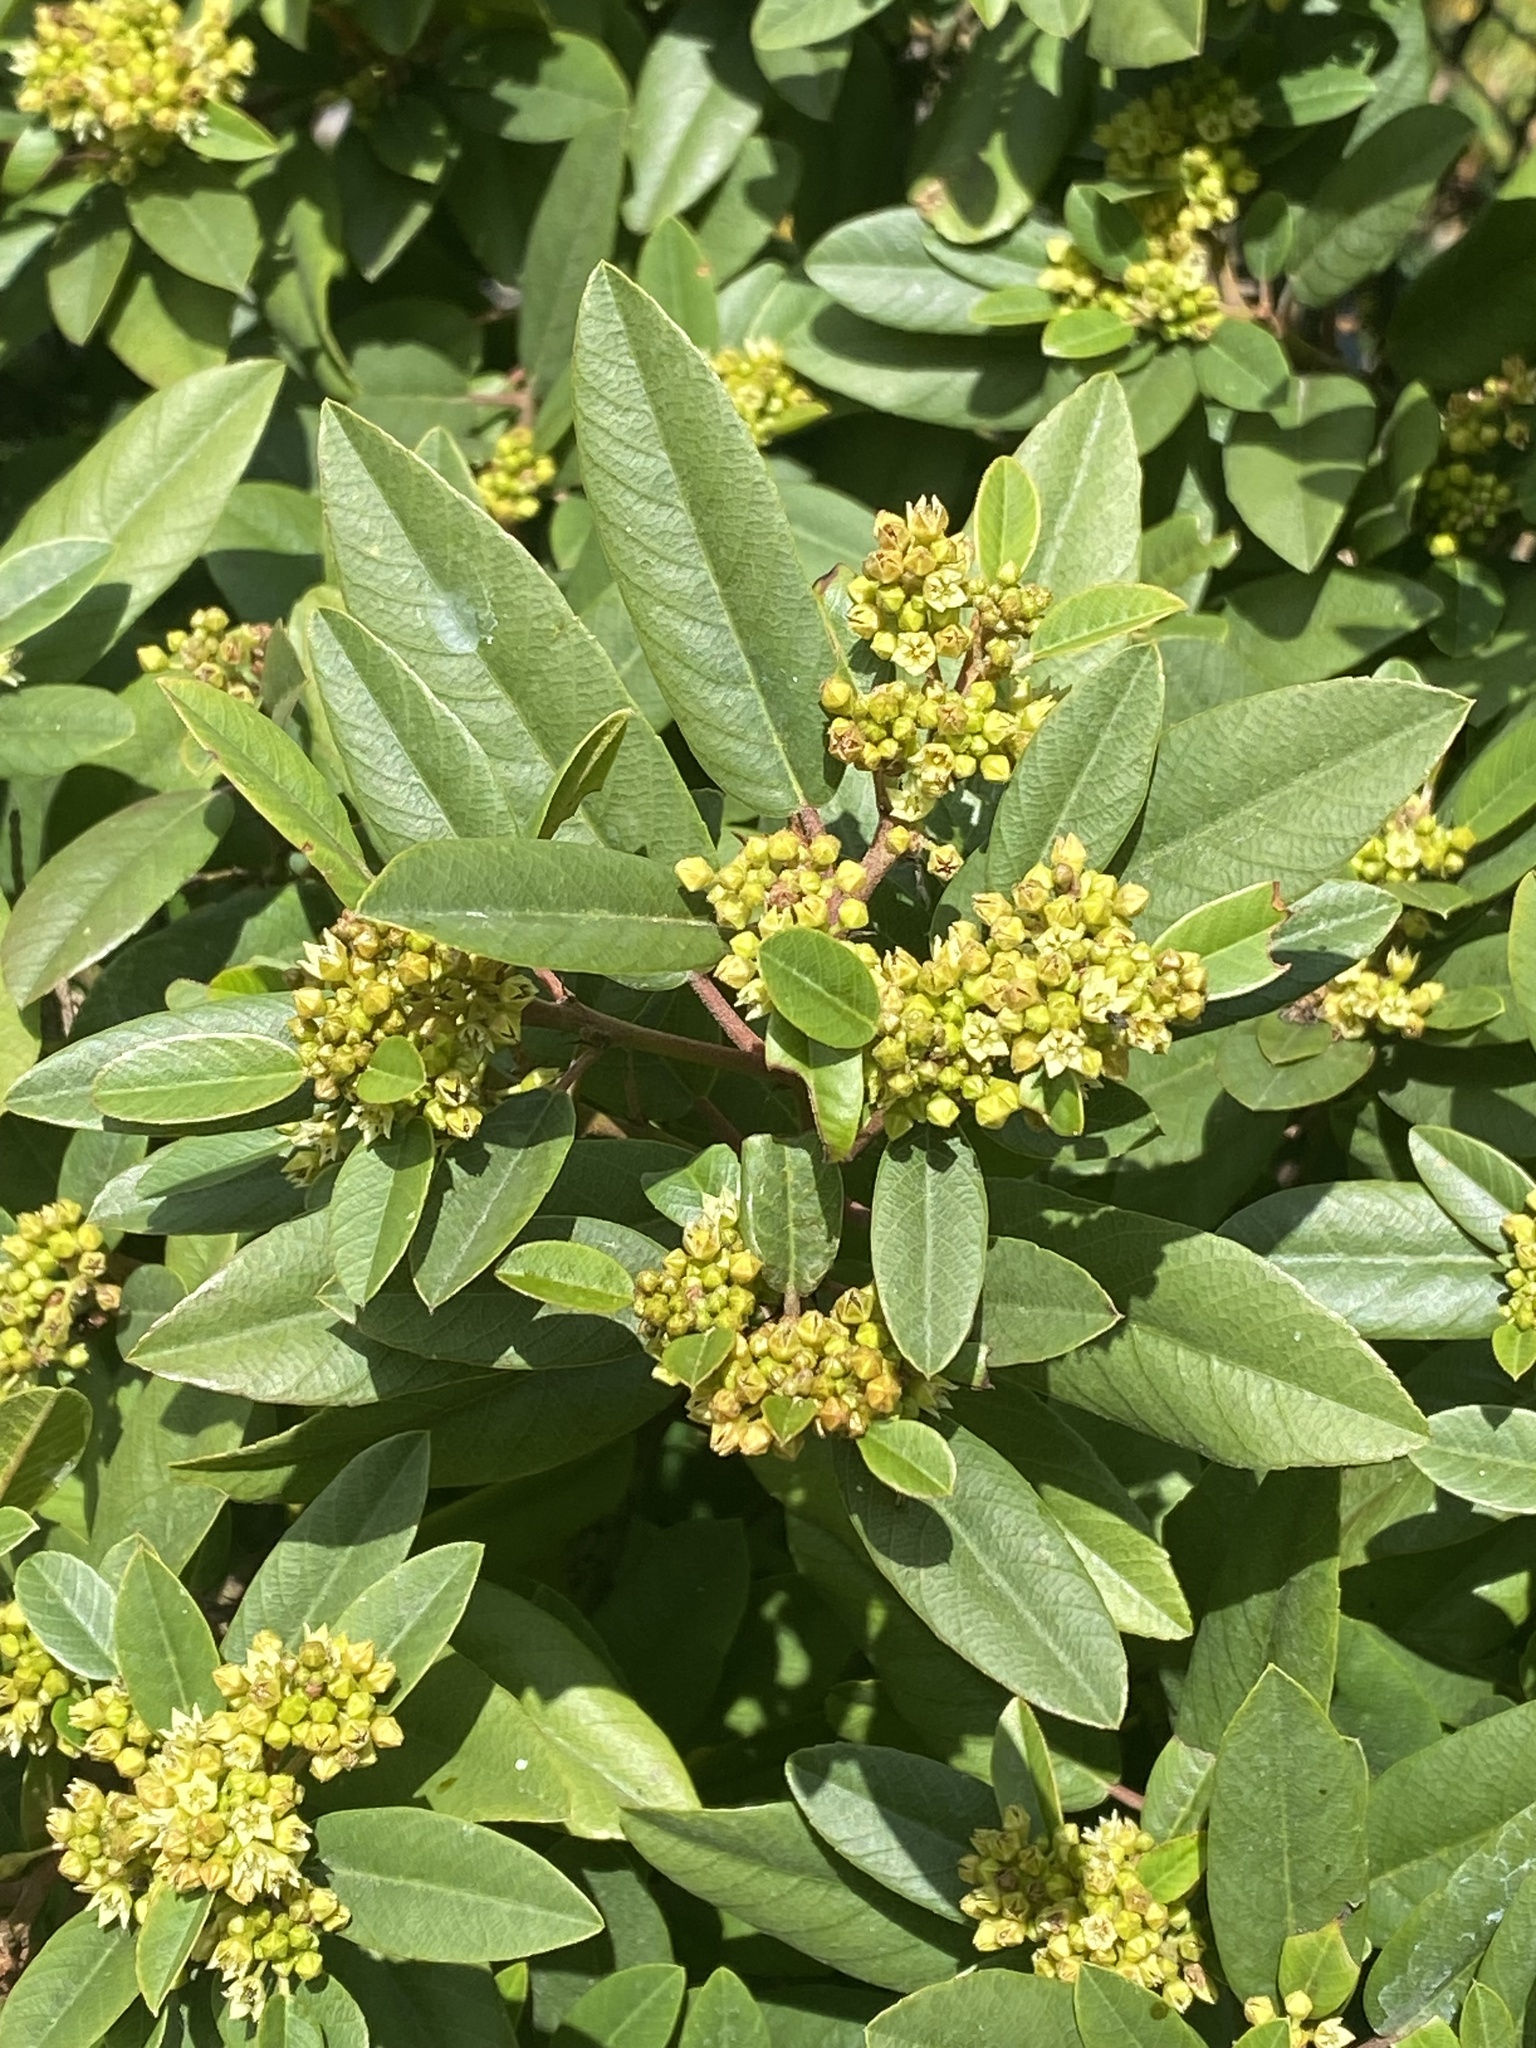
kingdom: Plantae
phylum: Tracheophyta
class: Magnoliopsida
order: Rosales
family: Rhamnaceae
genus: Frangula
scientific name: Frangula californica
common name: California buckthorn
